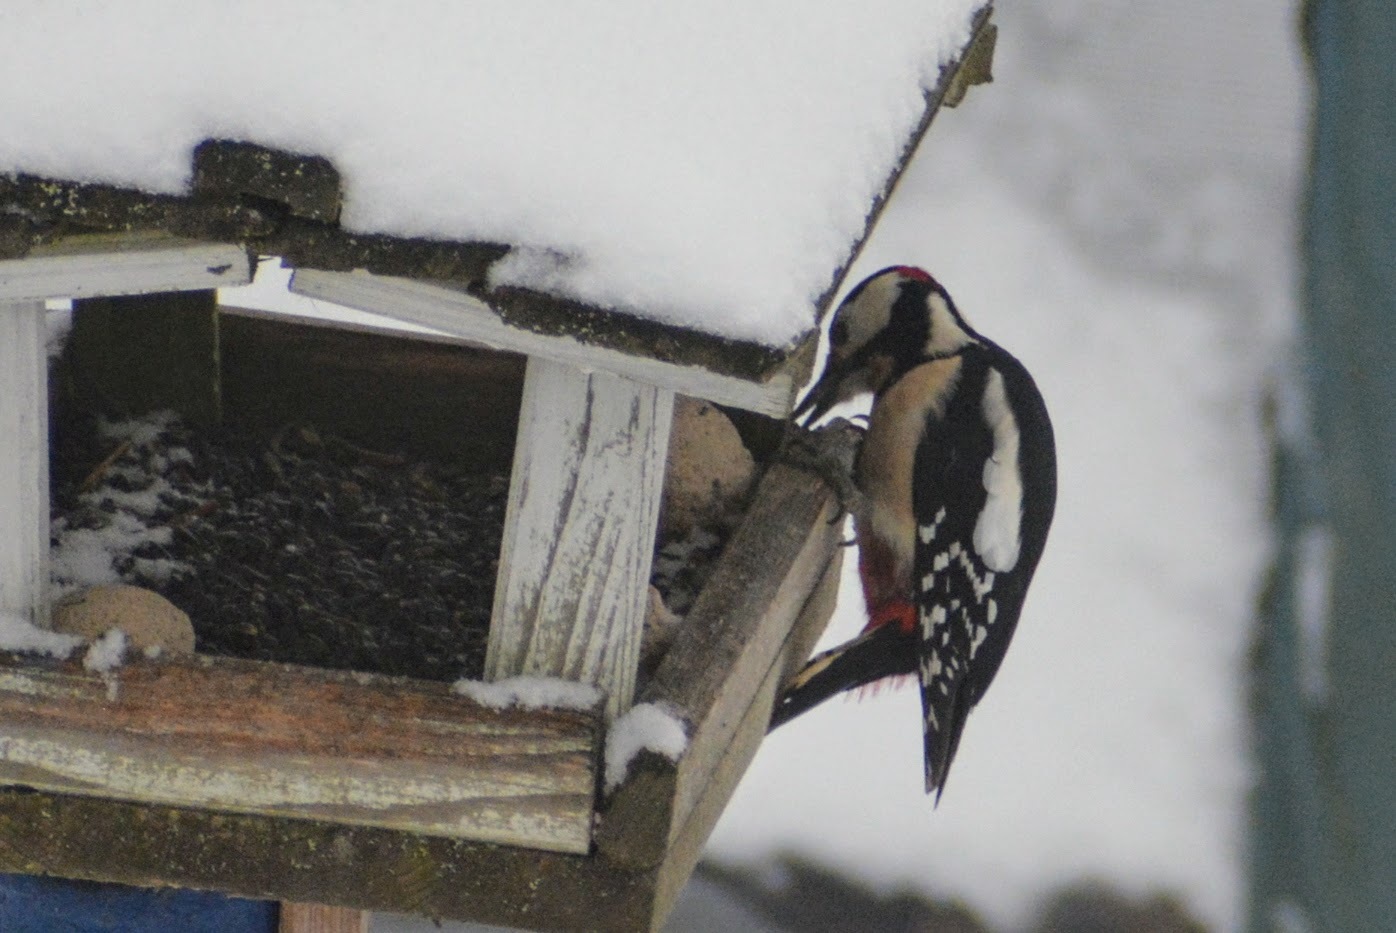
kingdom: Animalia
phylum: Chordata
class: Aves
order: Piciformes
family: Picidae
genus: Dendrocopos
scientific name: Dendrocopos major
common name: Great spotted woodpecker
